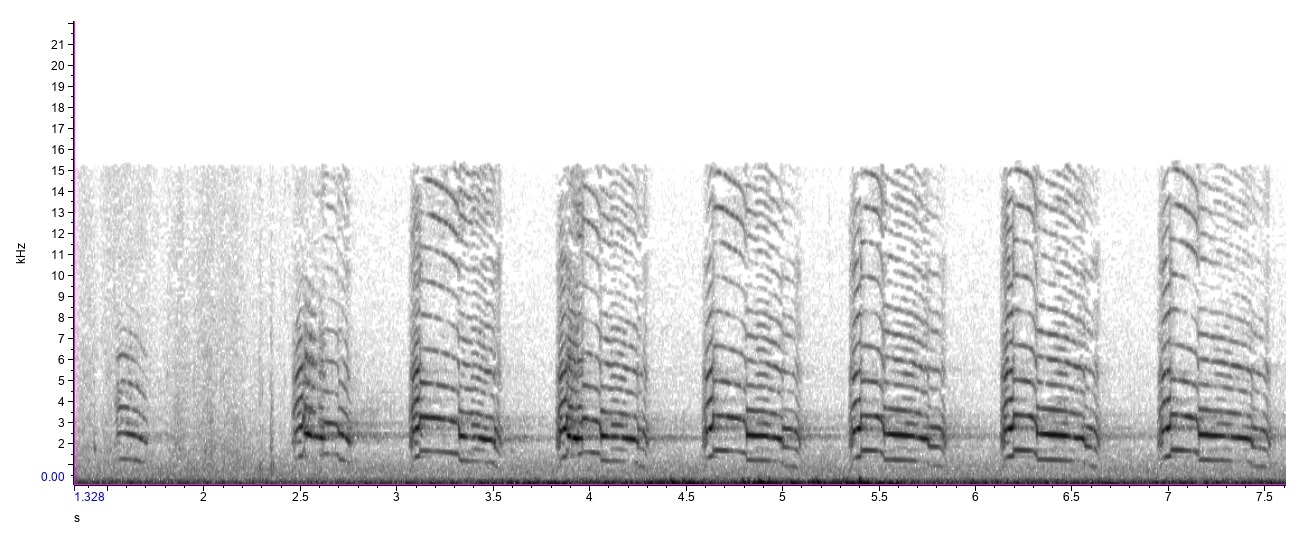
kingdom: Animalia
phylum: Chordata
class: Aves
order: Accipitriformes
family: Accipitridae
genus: Buteo
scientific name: Buteo lineatus
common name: Red-shouldered hawk
